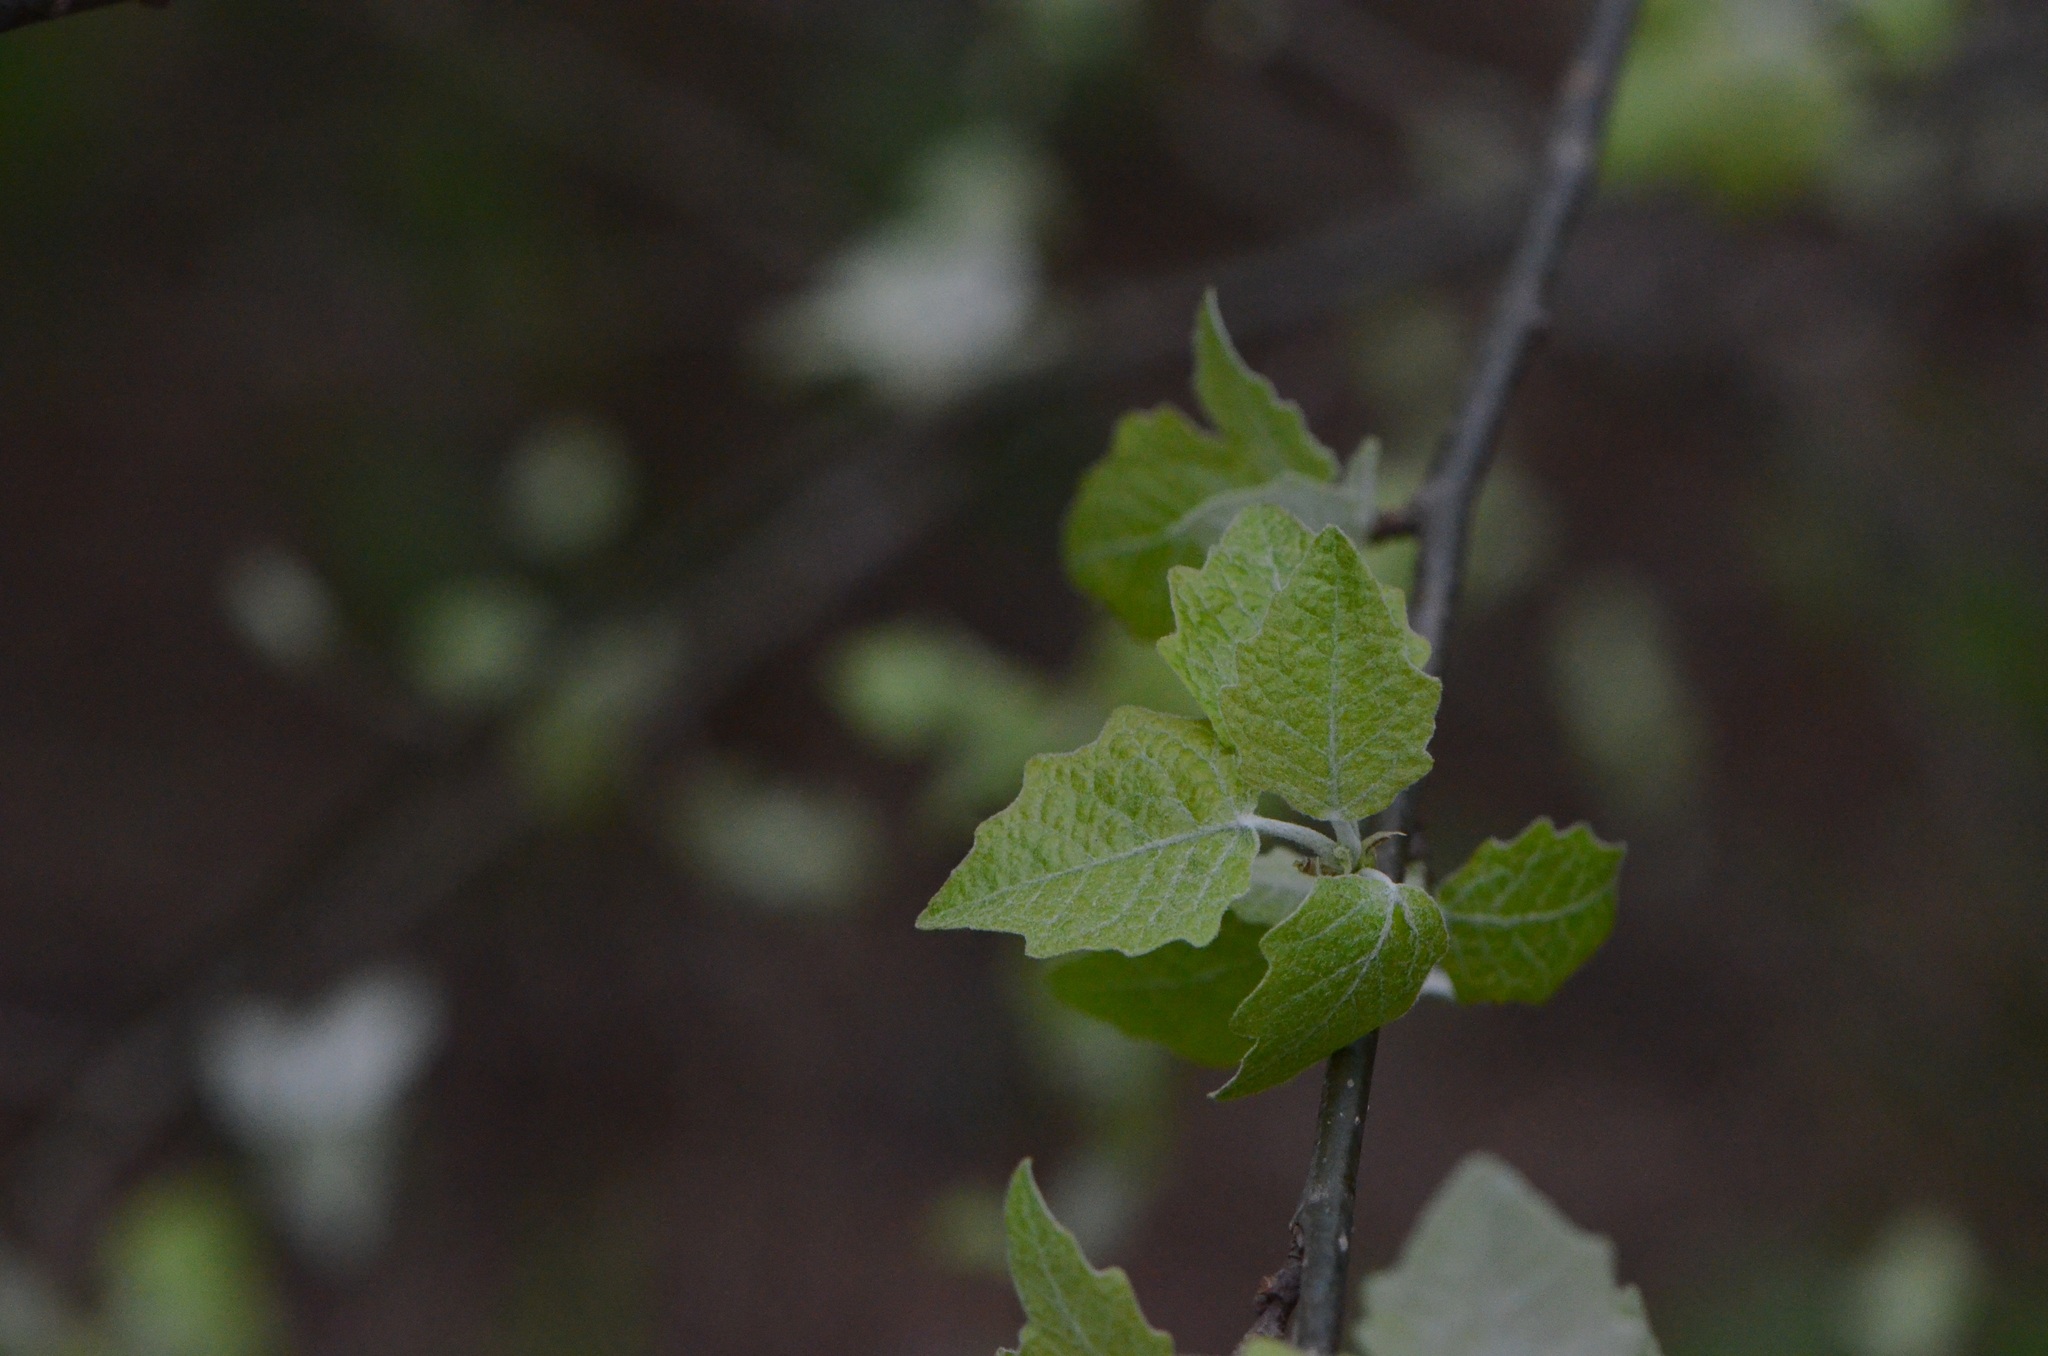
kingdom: Plantae
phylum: Tracheophyta
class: Magnoliopsida
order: Malpighiales
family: Salicaceae
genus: Populus
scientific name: Populus alba
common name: White poplar
